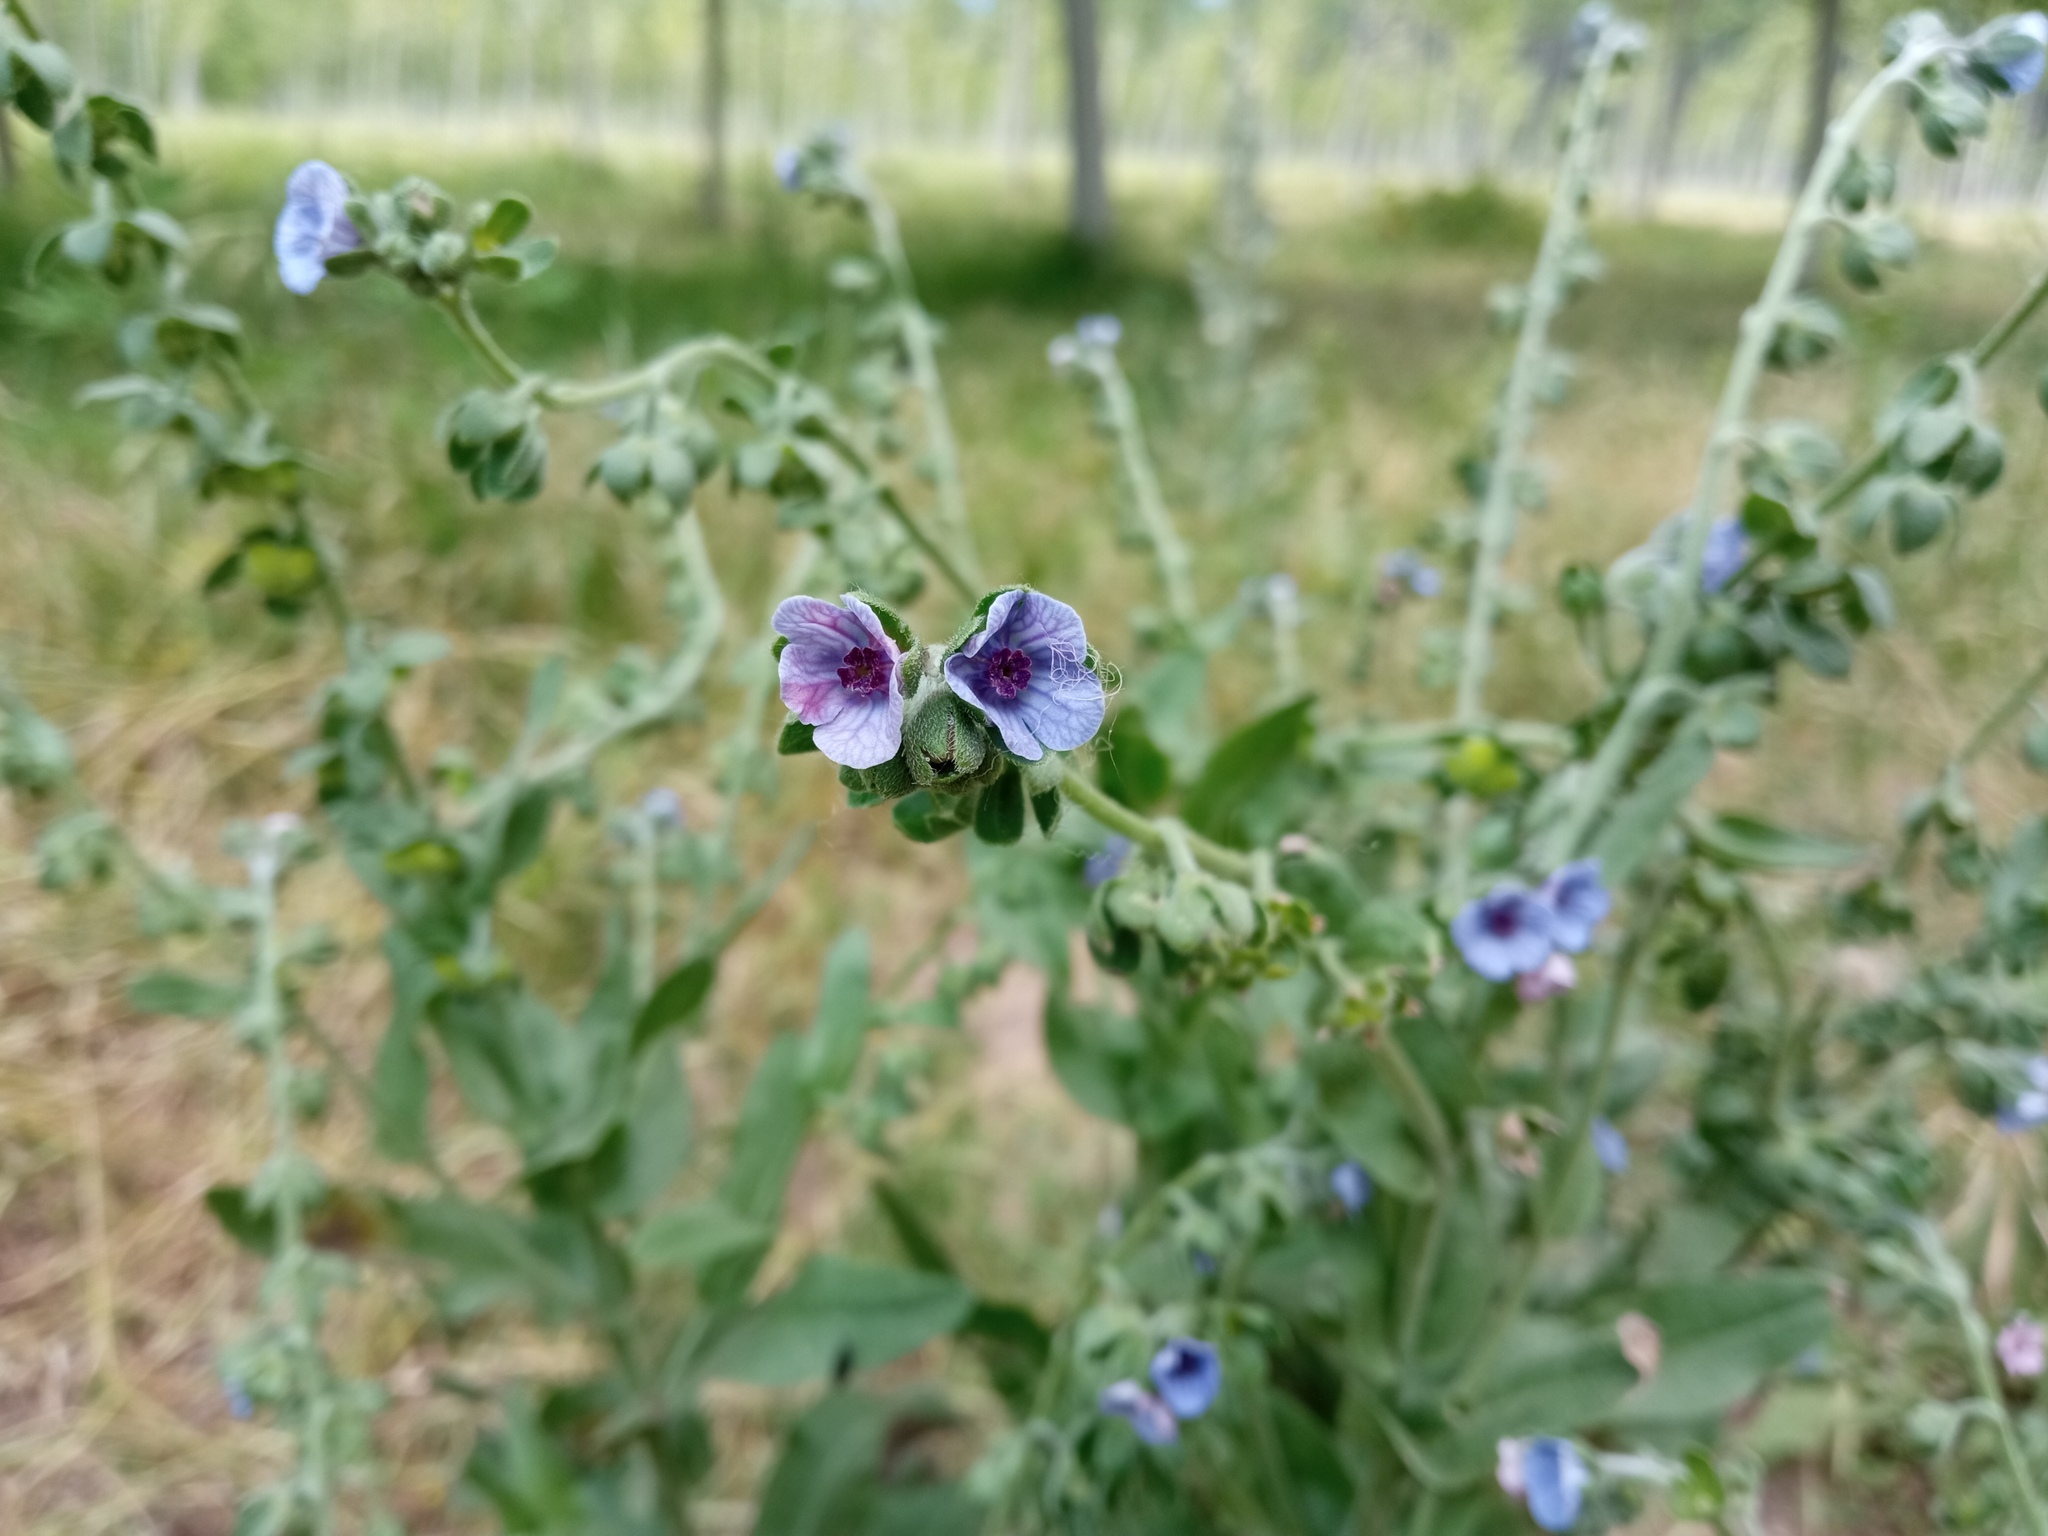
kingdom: Plantae
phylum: Tracheophyta
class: Magnoliopsida
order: Boraginales
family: Boraginaceae
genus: Cynoglossum
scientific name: Cynoglossum creticum
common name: Blue hound's tongue
